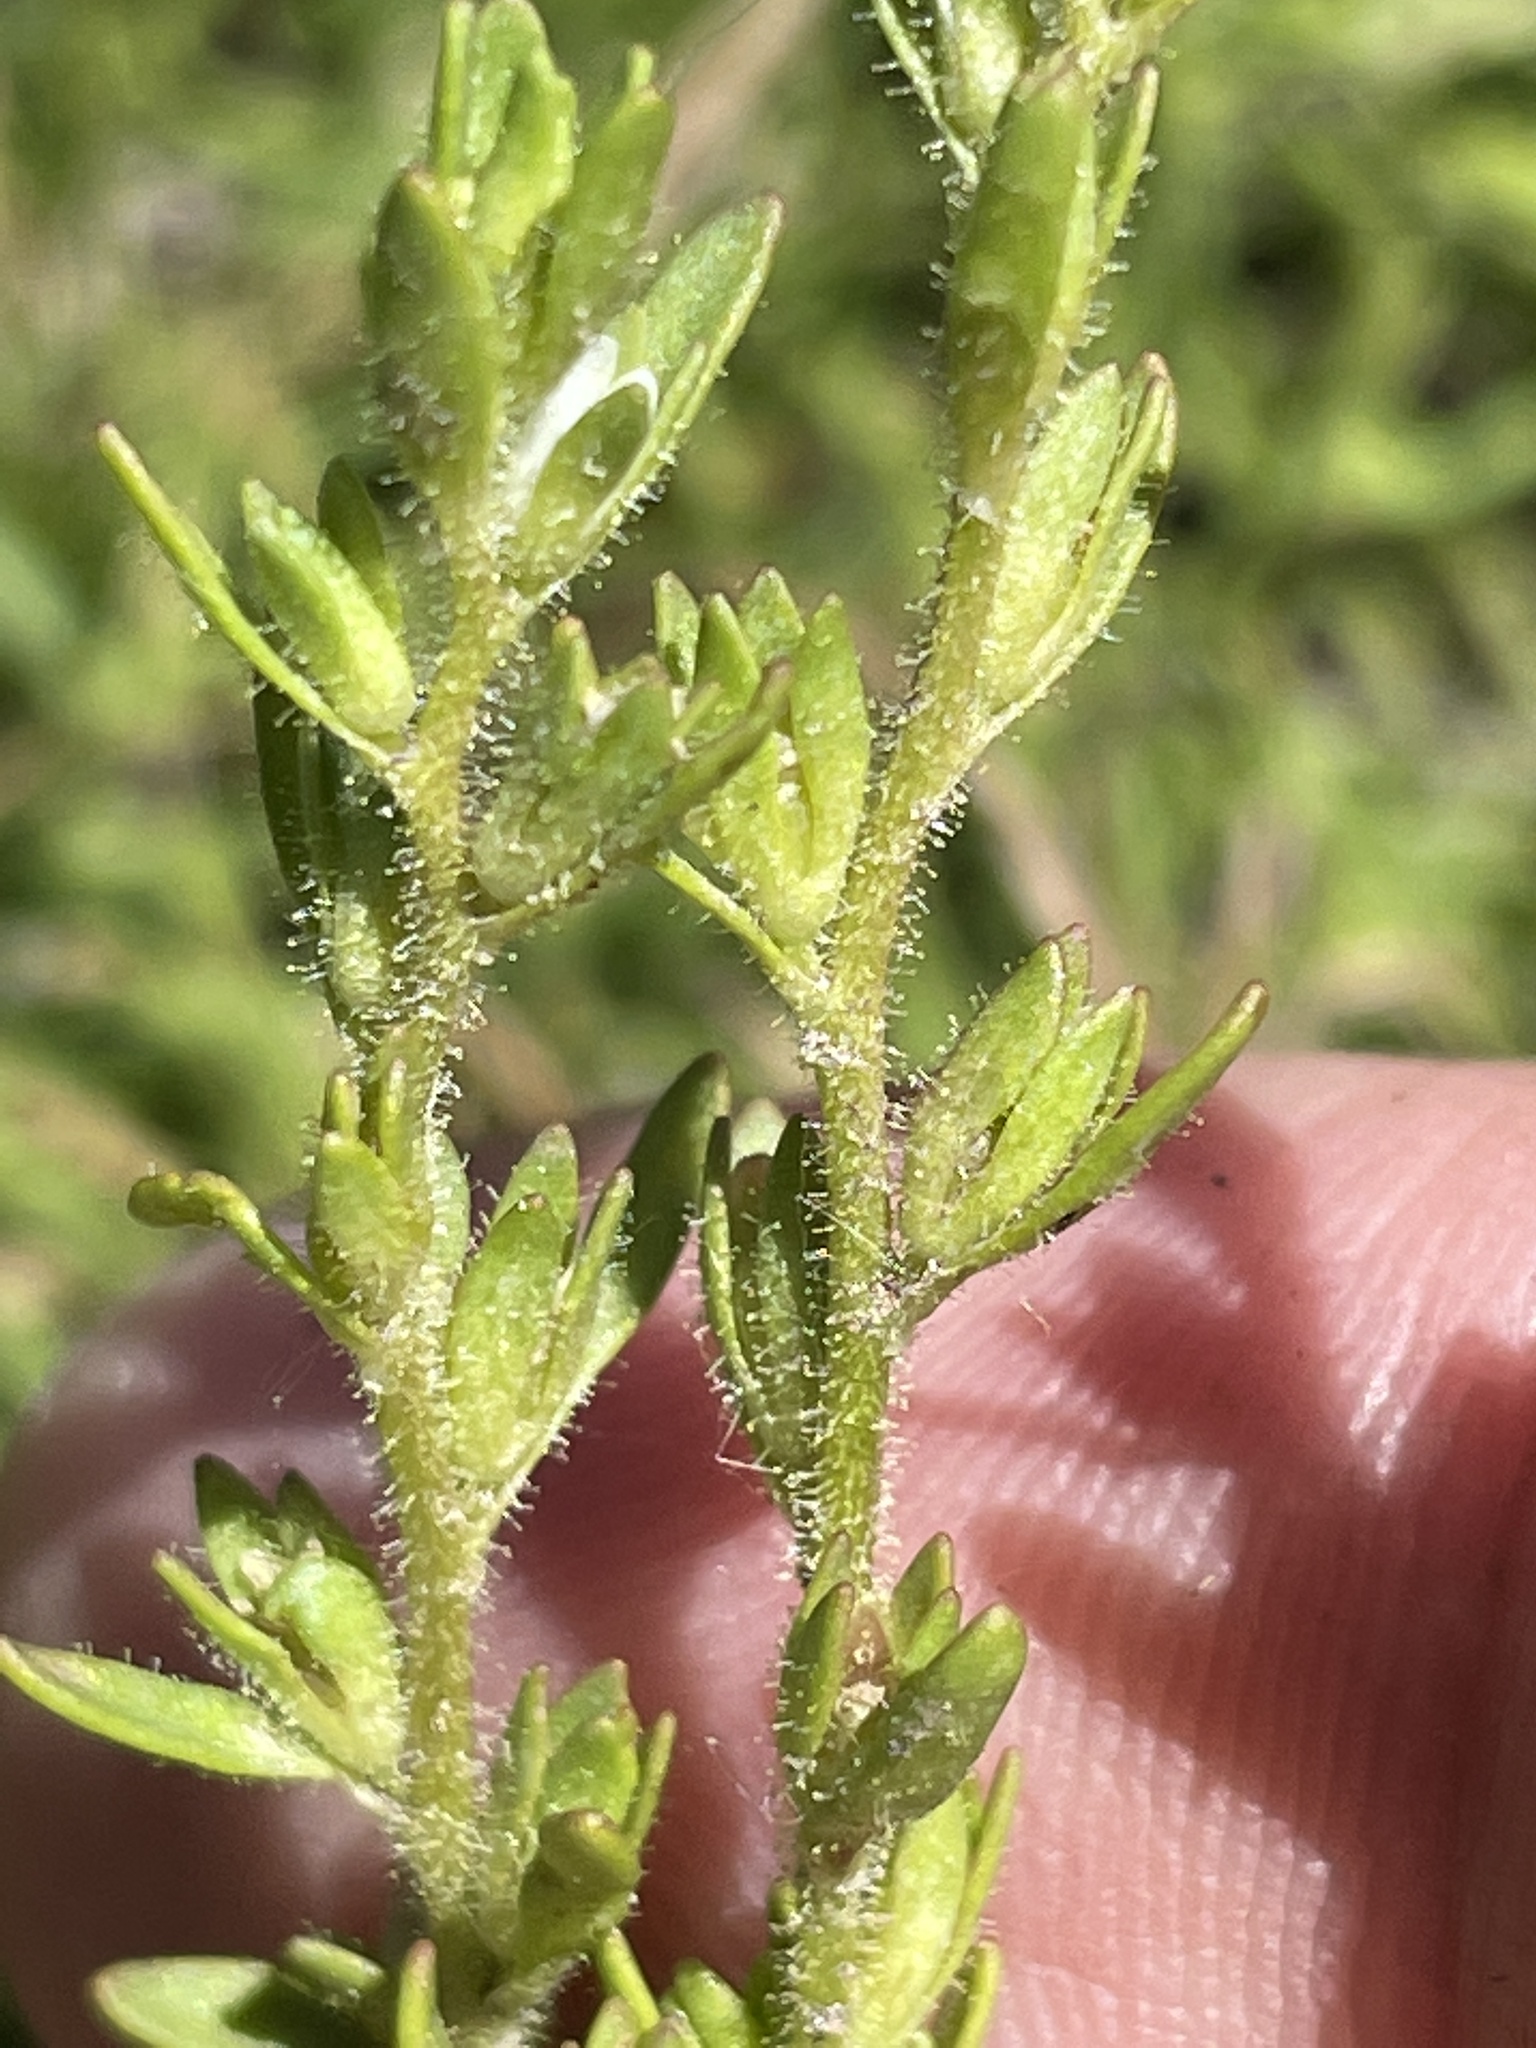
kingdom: Plantae
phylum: Tracheophyta
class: Magnoliopsida
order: Lamiales
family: Plantaginaceae
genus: Veronica
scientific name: Veronica peregrina
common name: Neckweed
